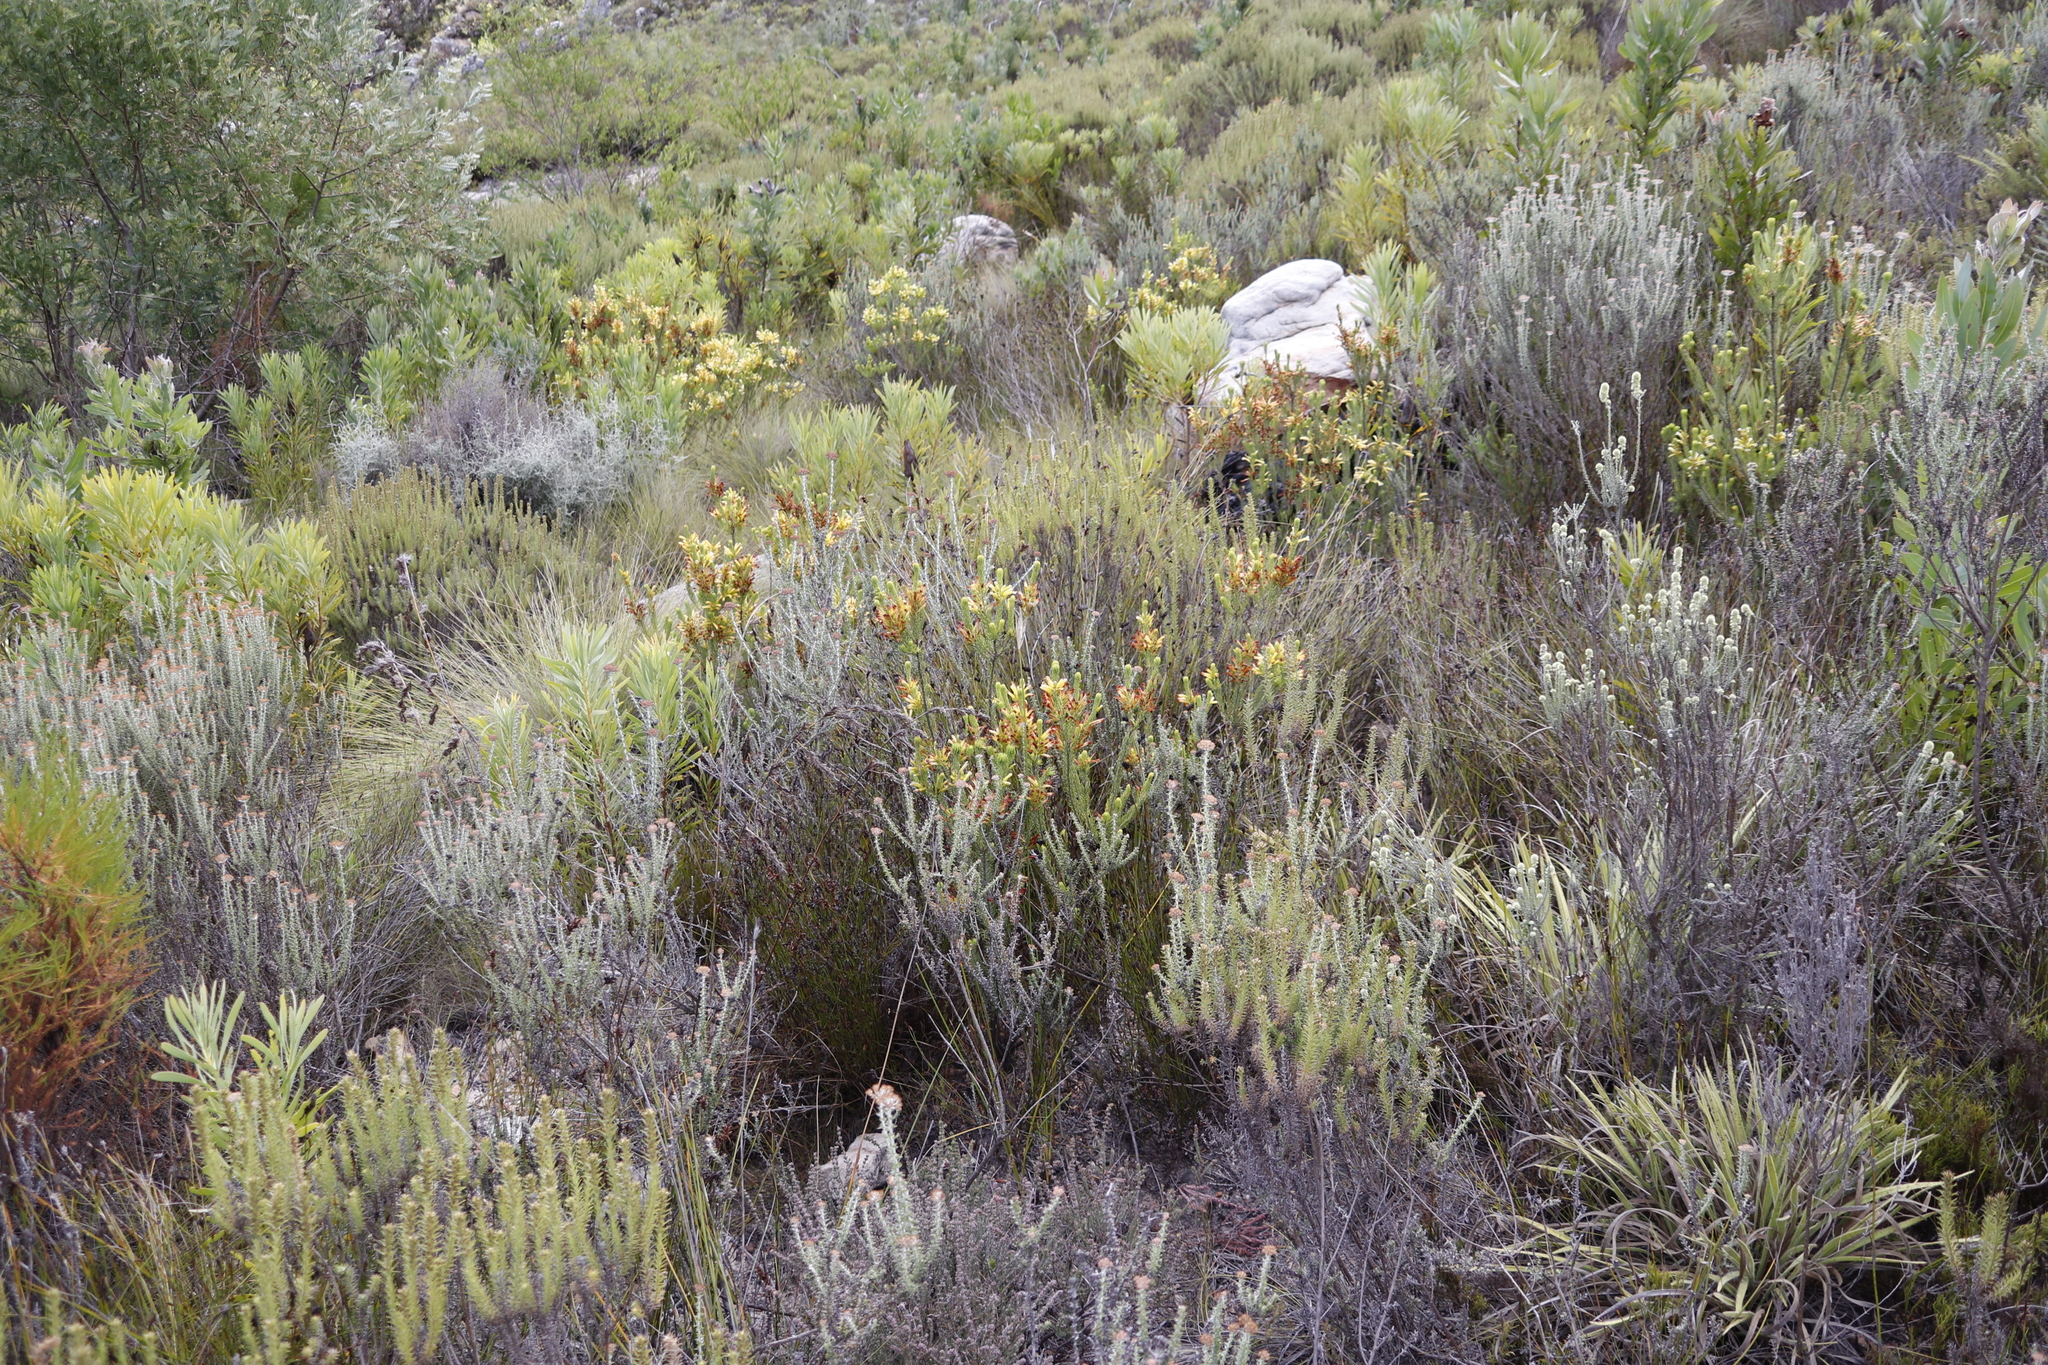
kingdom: Plantae
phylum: Tracheophyta
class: Magnoliopsida
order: Ericales
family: Ericaceae
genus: Erica
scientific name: Erica pinea
